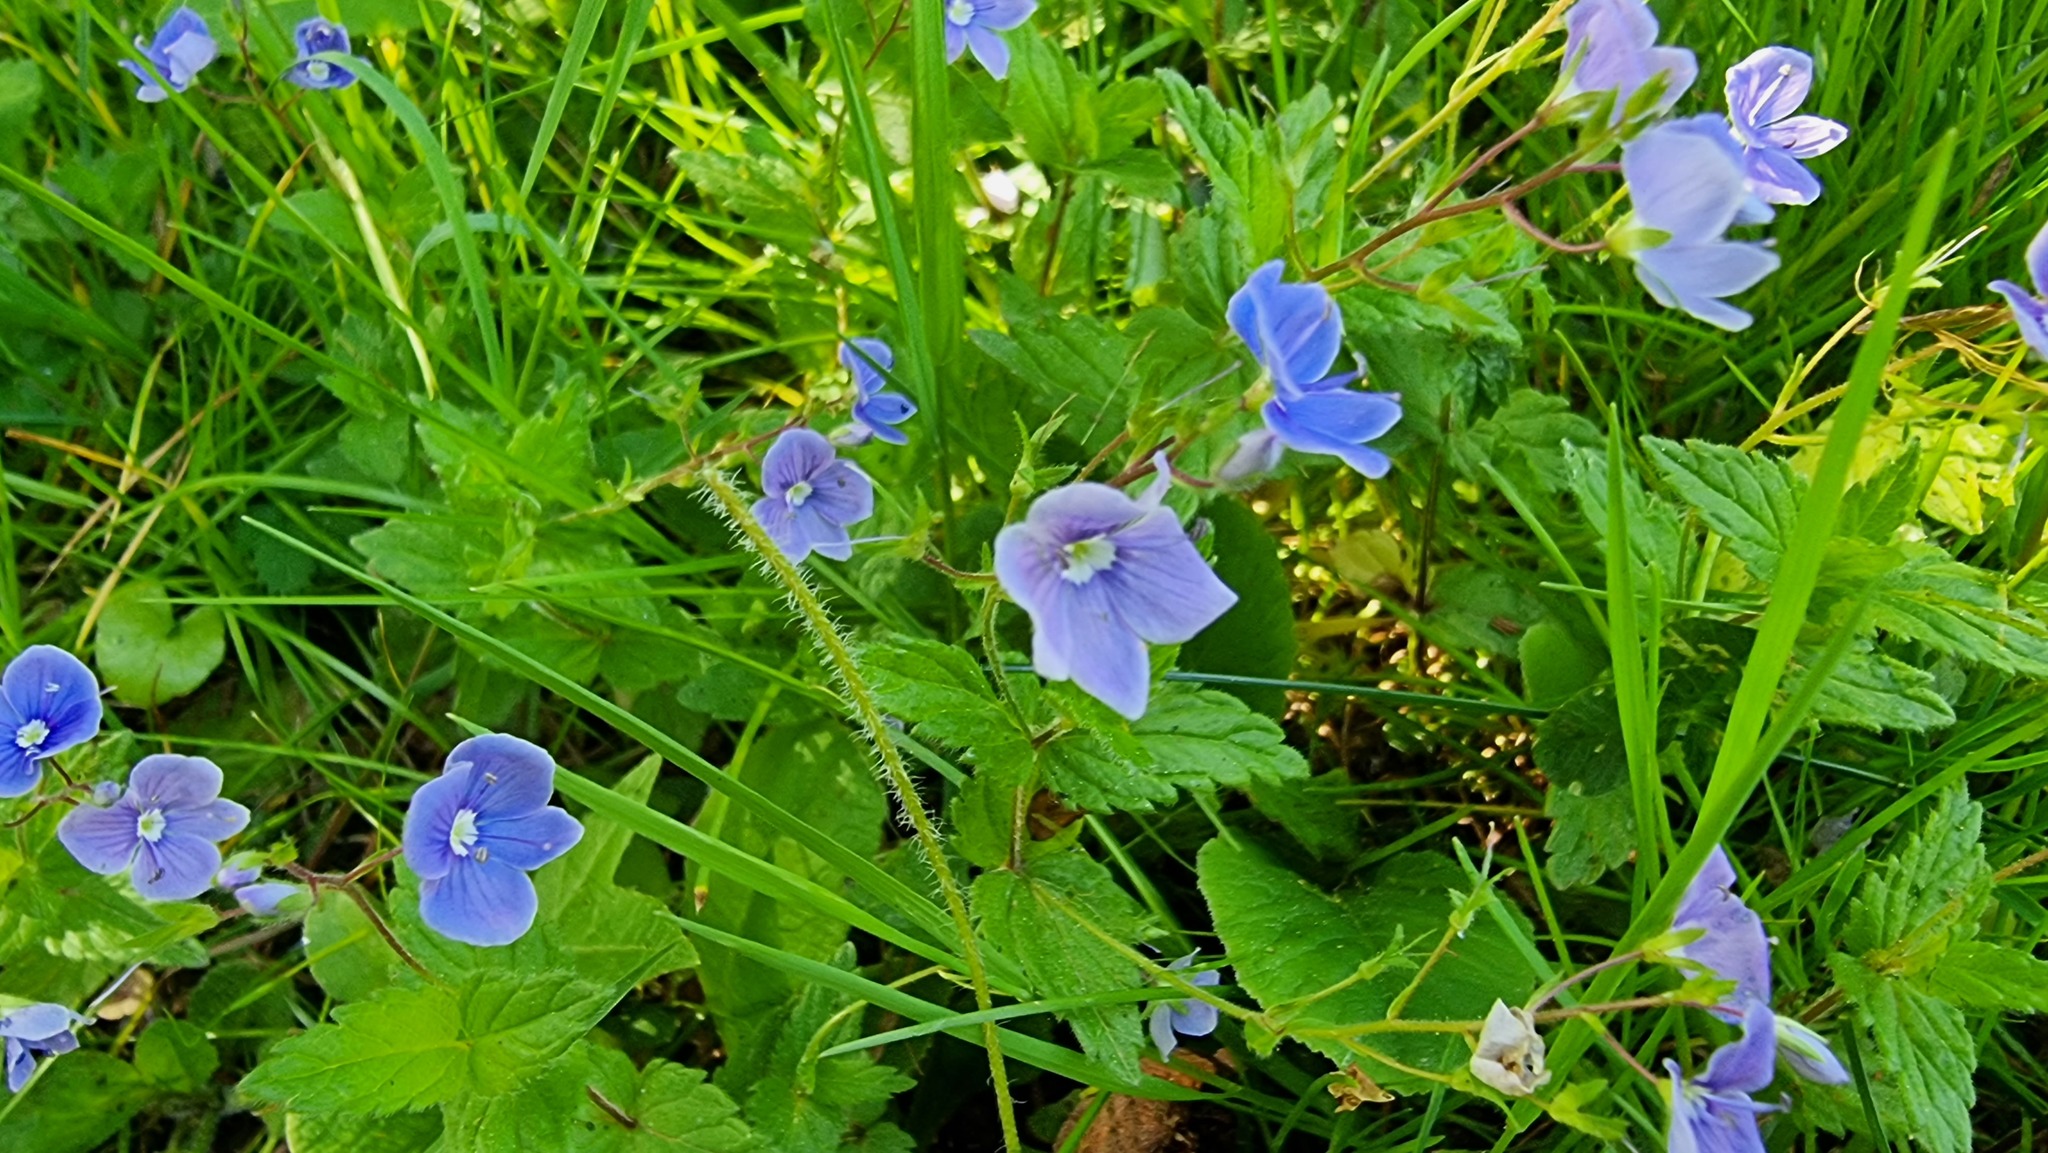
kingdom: Plantae
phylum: Tracheophyta
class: Magnoliopsida
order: Lamiales
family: Plantaginaceae
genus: Veronica
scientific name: Veronica chamaedrys
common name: Germander speedwell
